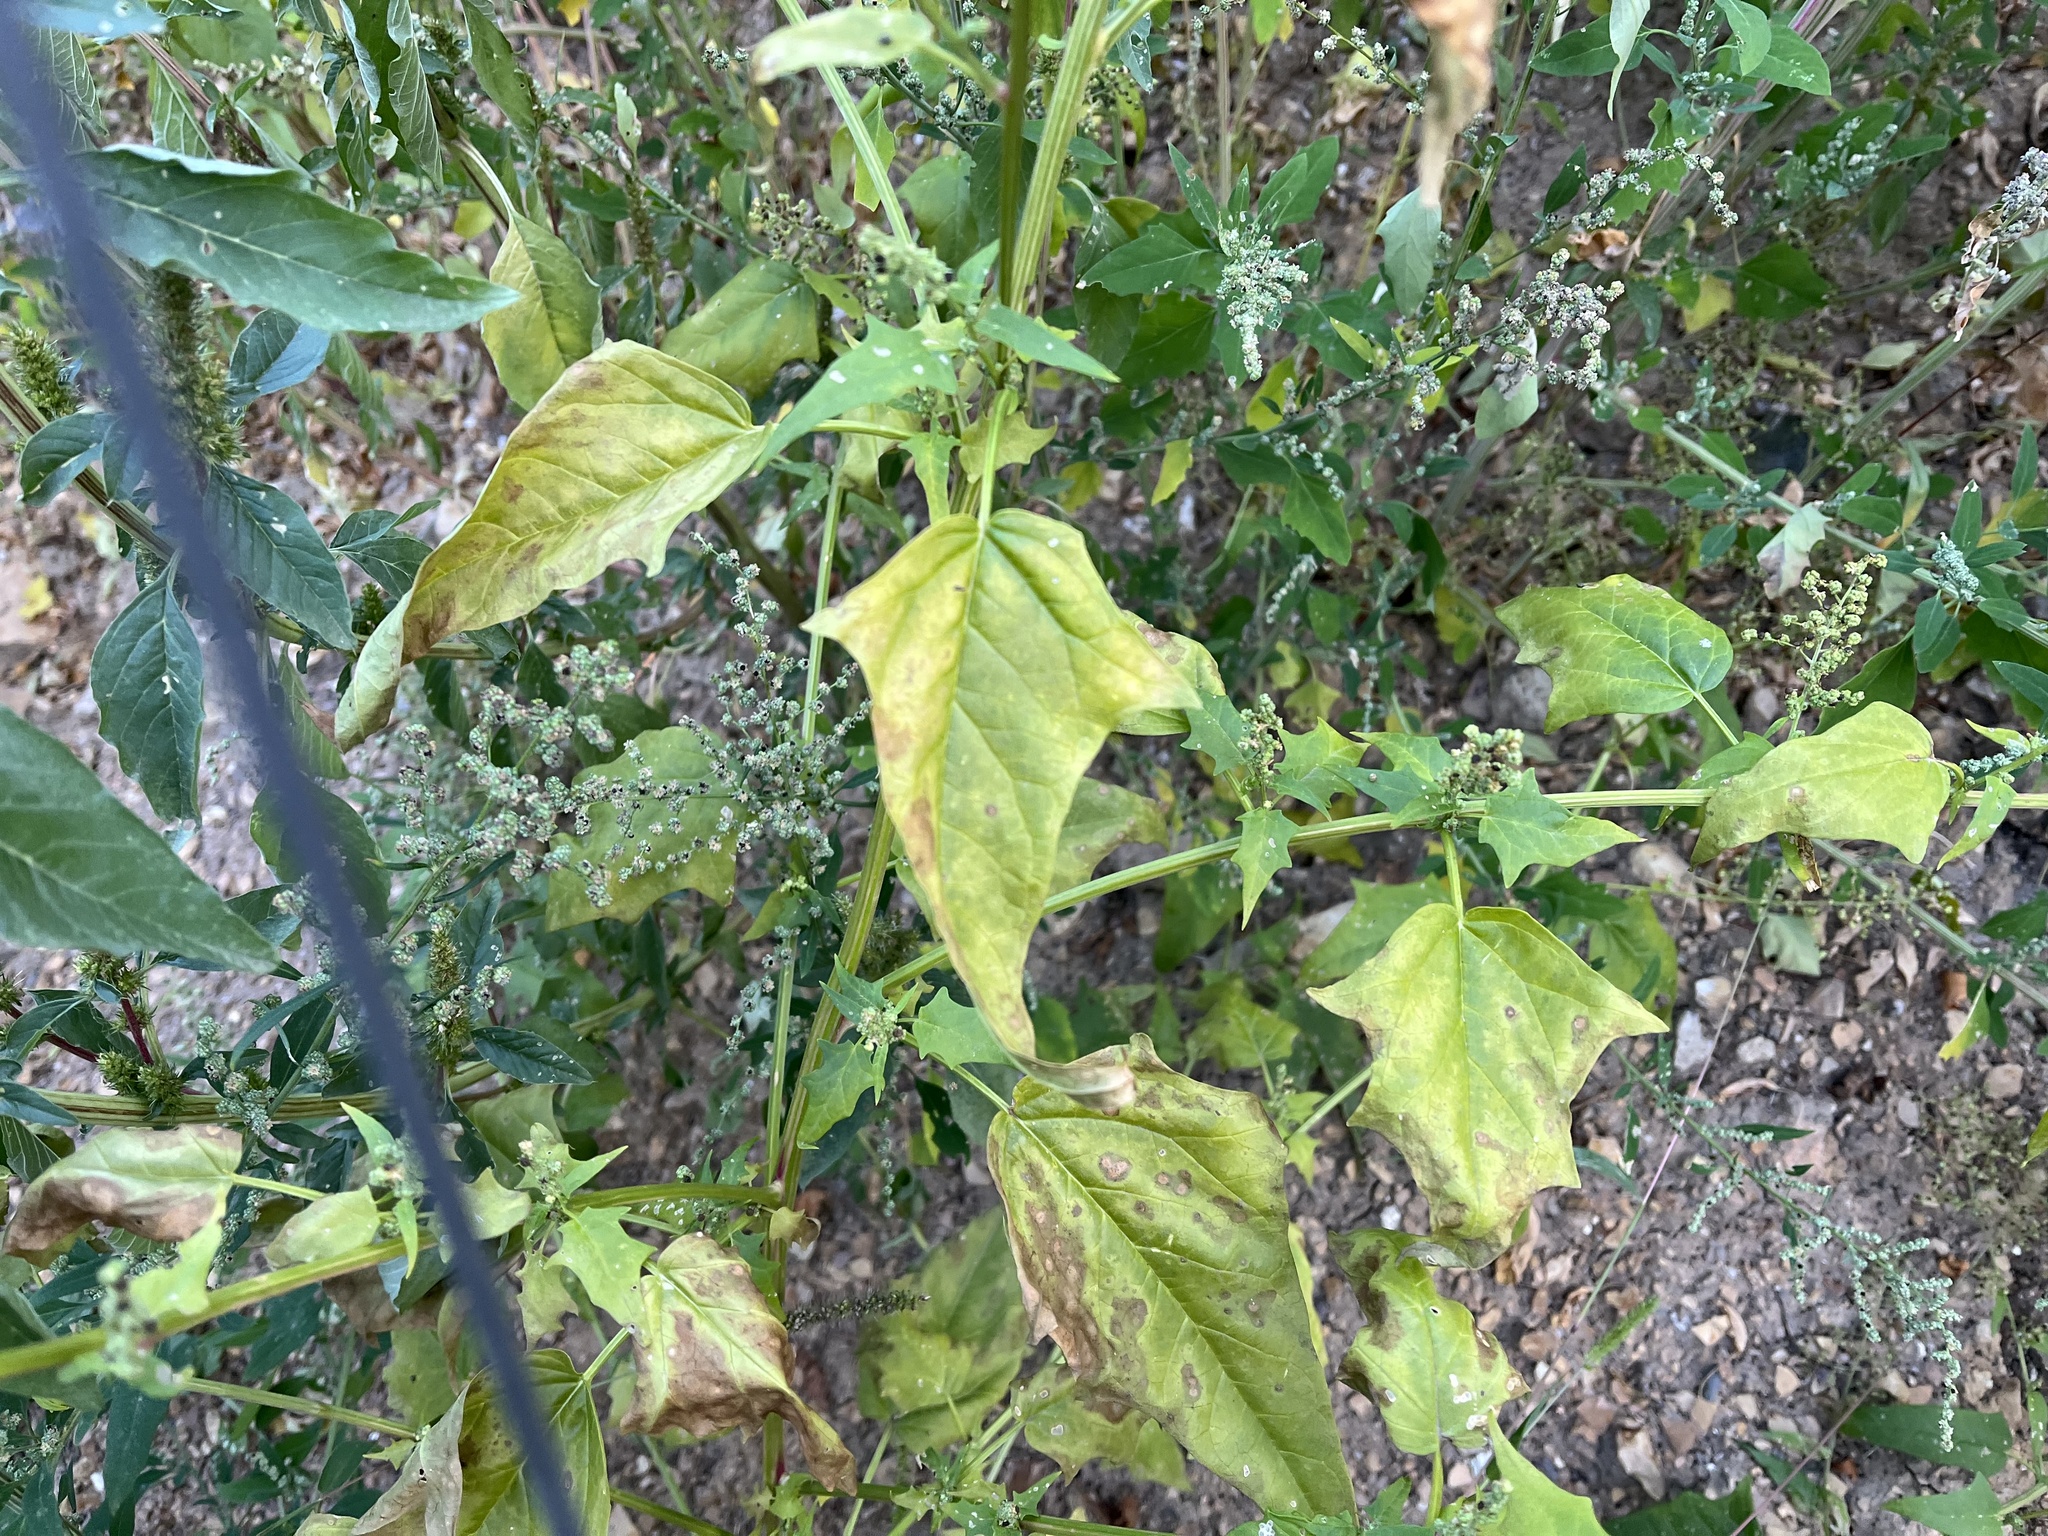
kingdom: Plantae
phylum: Tracheophyta
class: Magnoliopsida
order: Caryophyllales
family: Amaranthaceae
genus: Chenopodiastrum
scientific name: Chenopodiastrum hybridum
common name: Mapleleaf goosefoot
